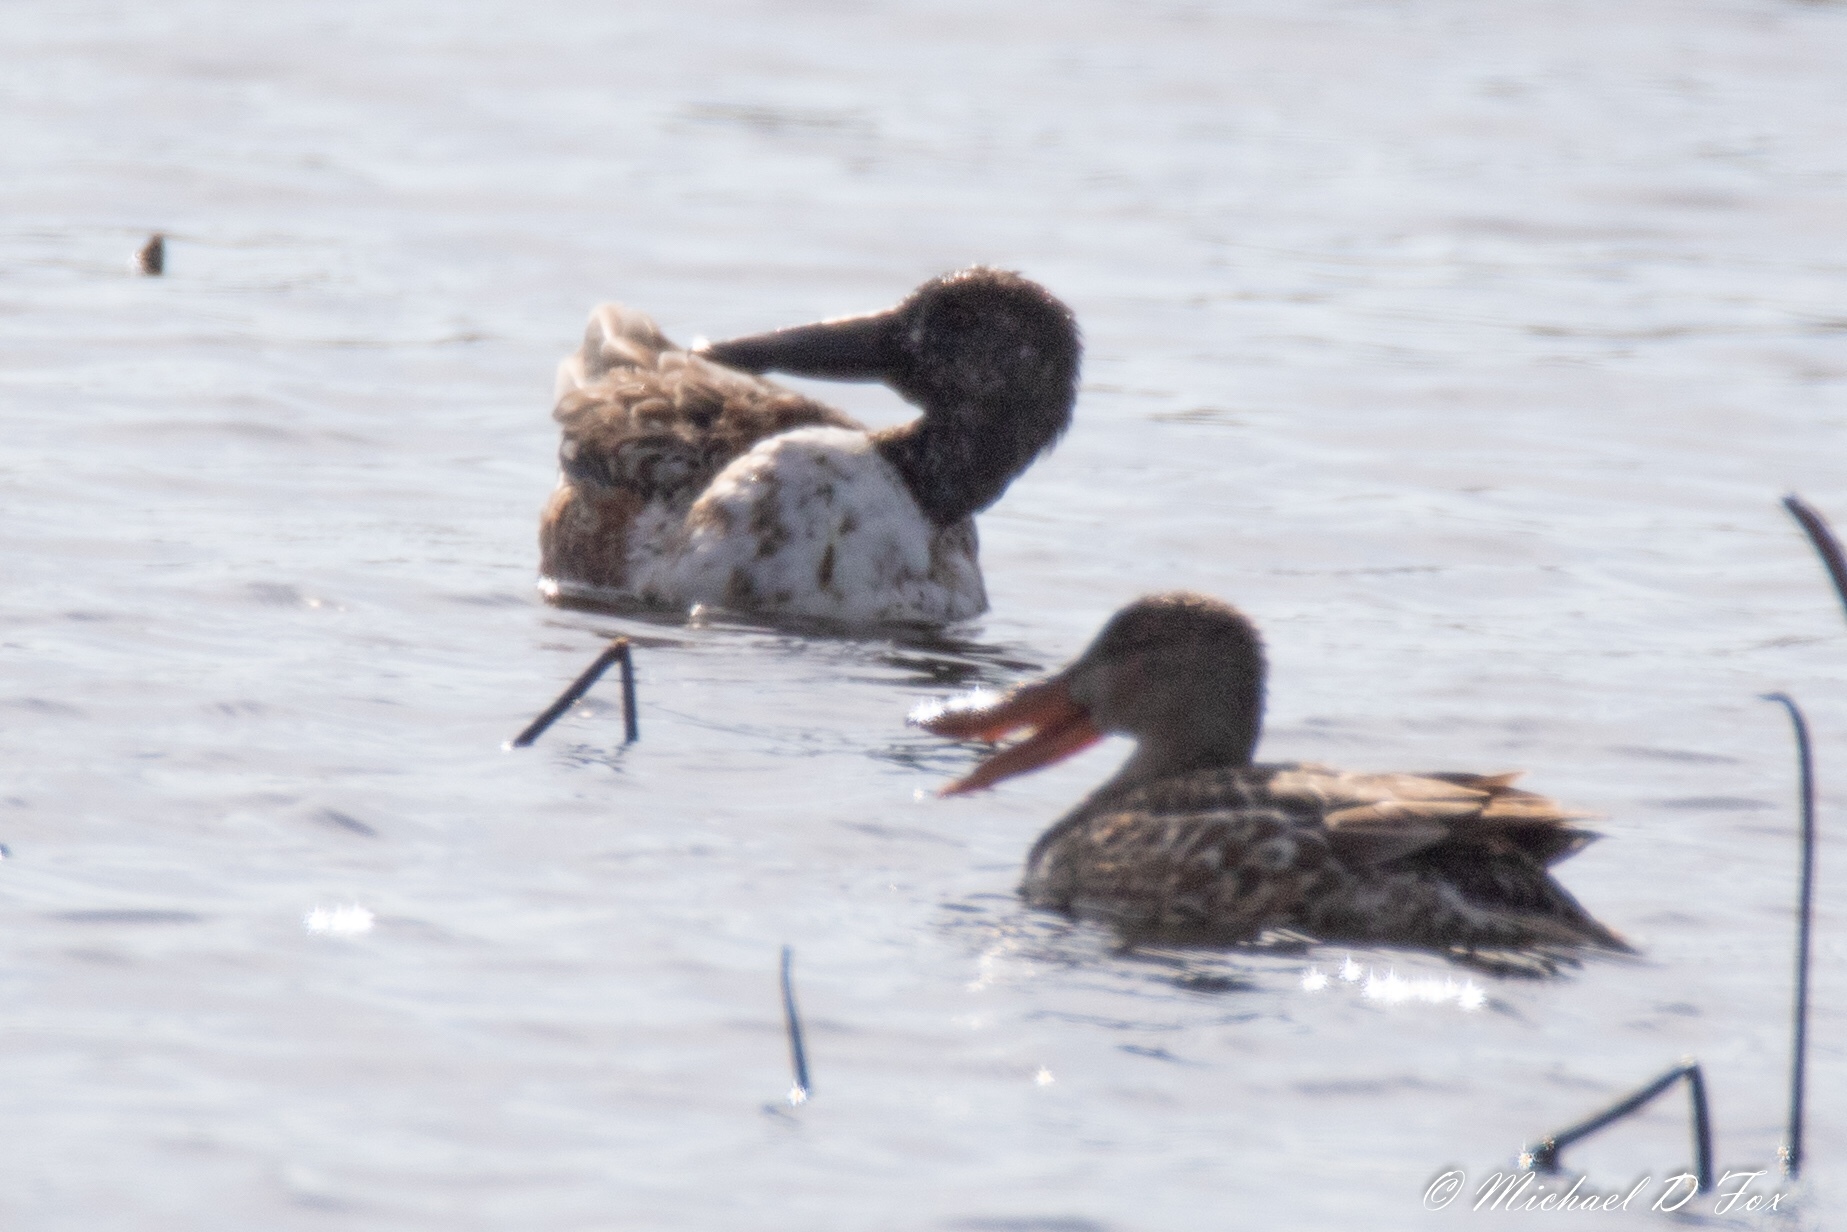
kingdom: Animalia
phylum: Chordata
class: Aves
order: Anseriformes
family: Anatidae
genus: Spatula
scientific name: Spatula clypeata
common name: Northern shoveler
